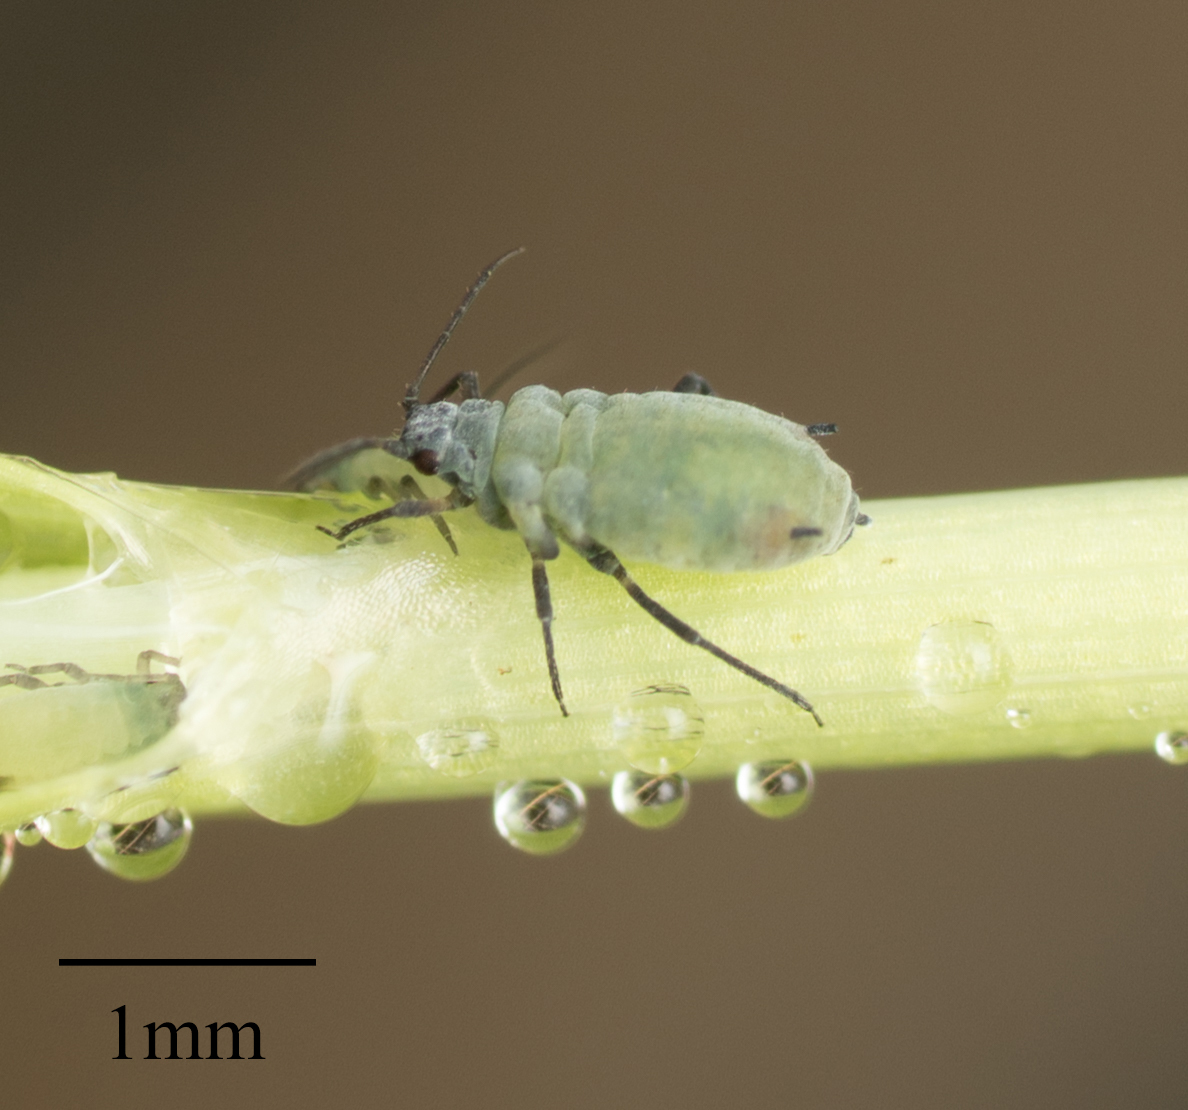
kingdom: Animalia
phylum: Arthropoda
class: Insecta
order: Hemiptera
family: Aphididae
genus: Rhopalosiphum
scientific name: Rhopalosiphum maidis
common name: Corn leaf aphid
